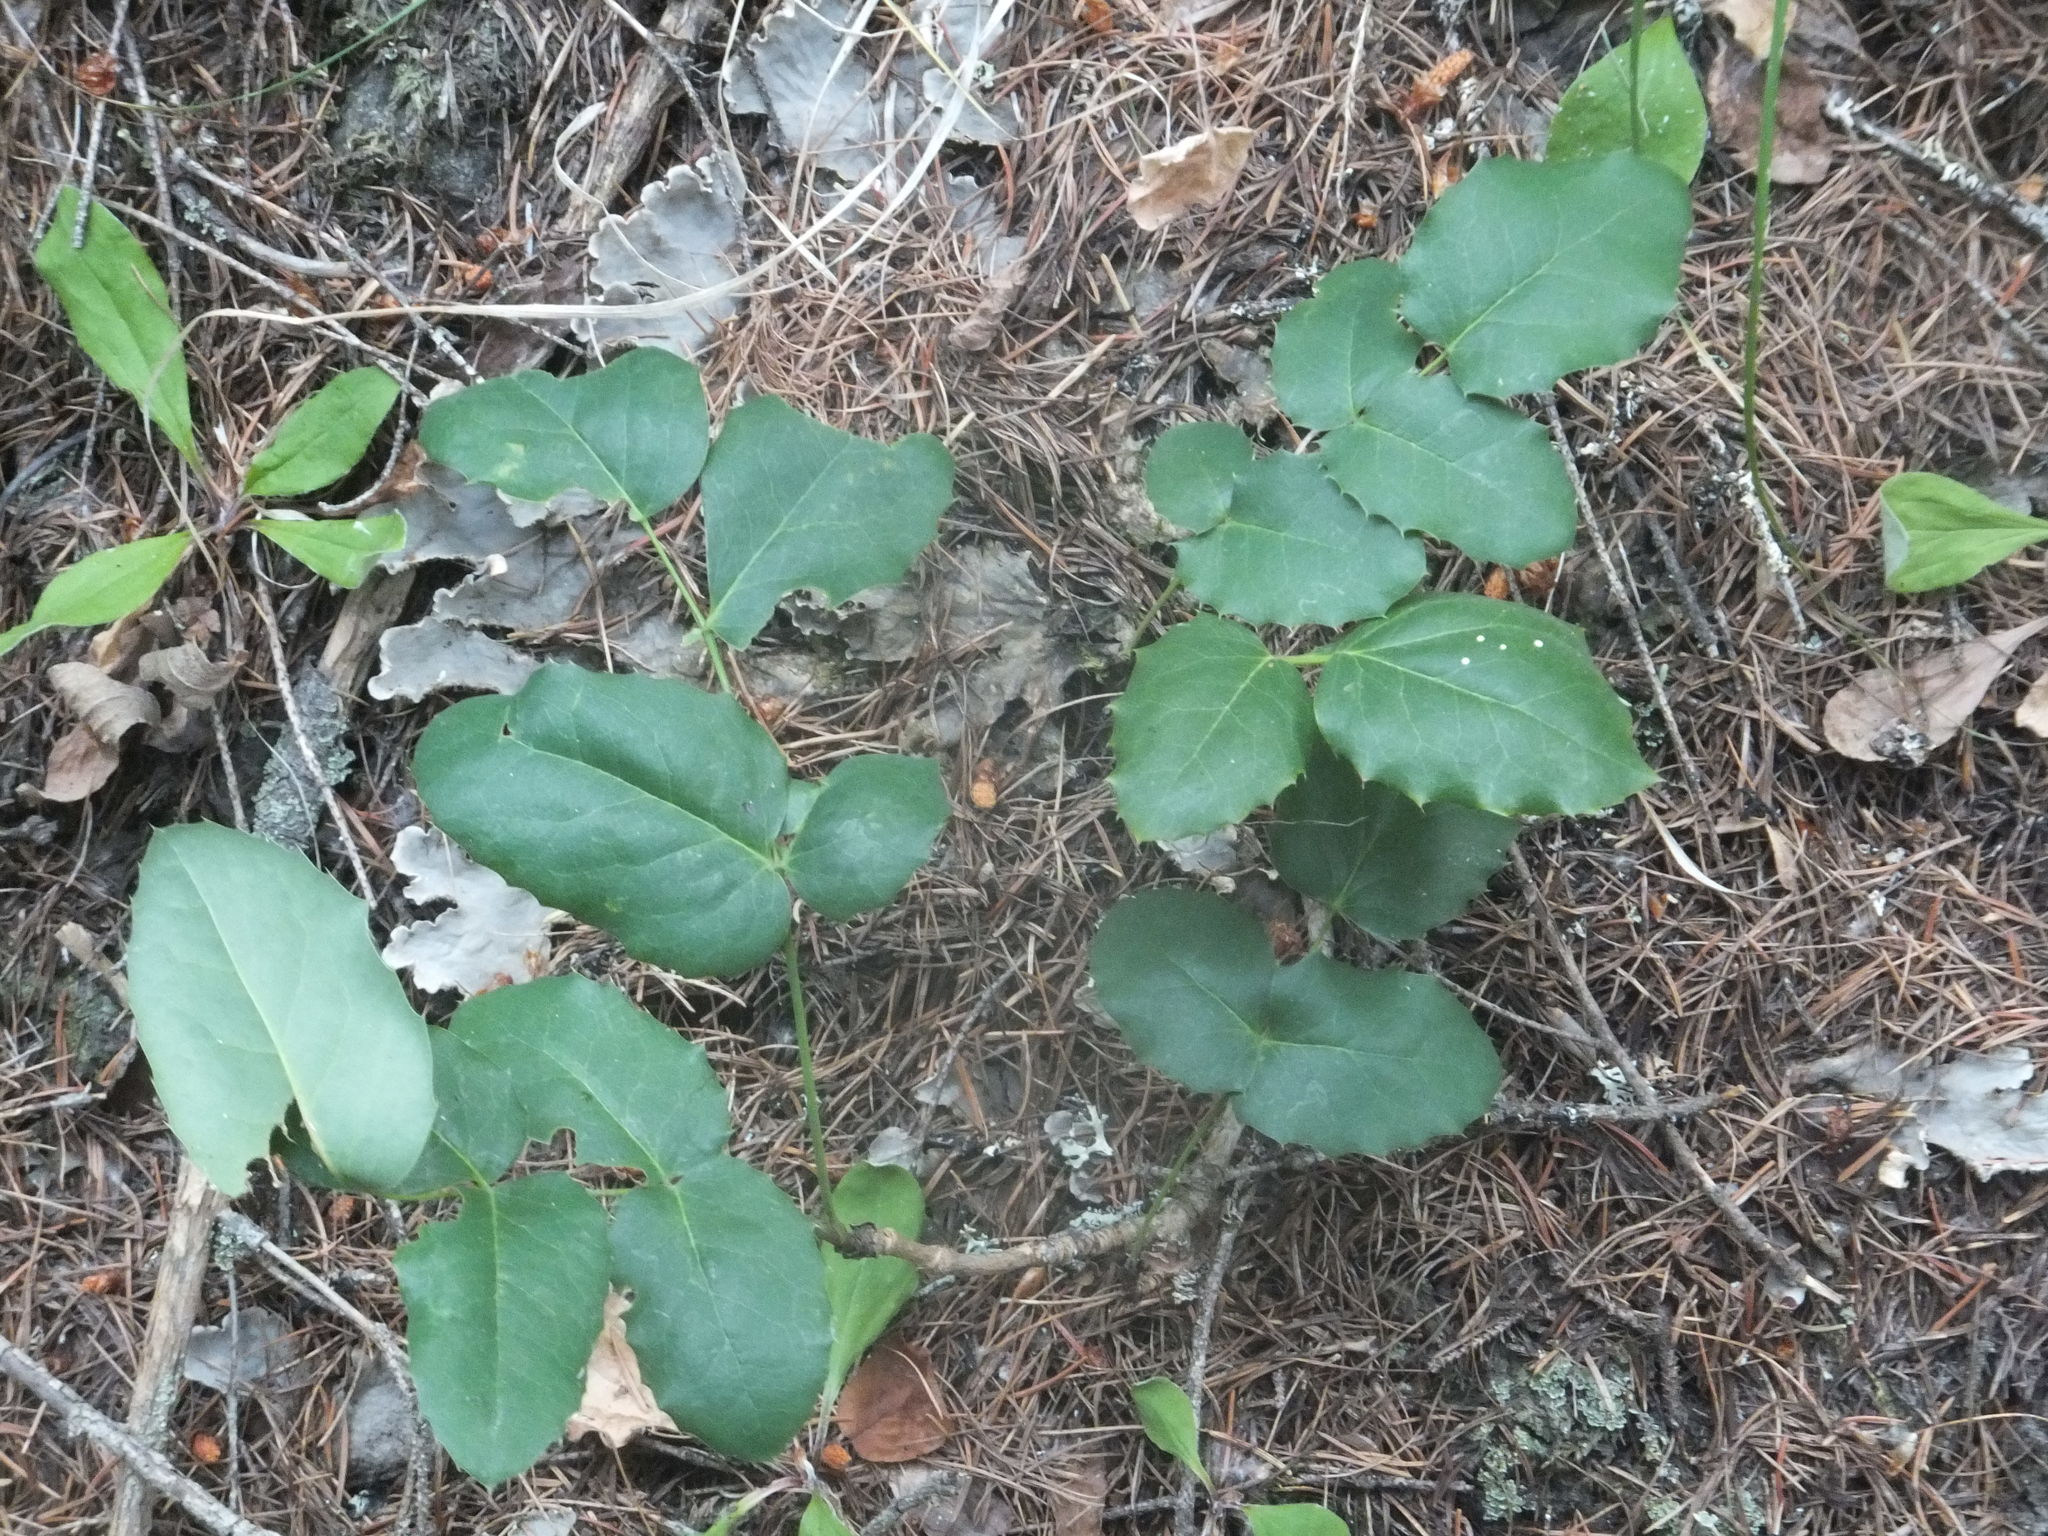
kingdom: Plantae
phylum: Tracheophyta
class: Magnoliopsida
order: Ranunculales
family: Berberidaceae
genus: Mahonia
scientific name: Mahonia repens
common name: Creeping oregon-grape
